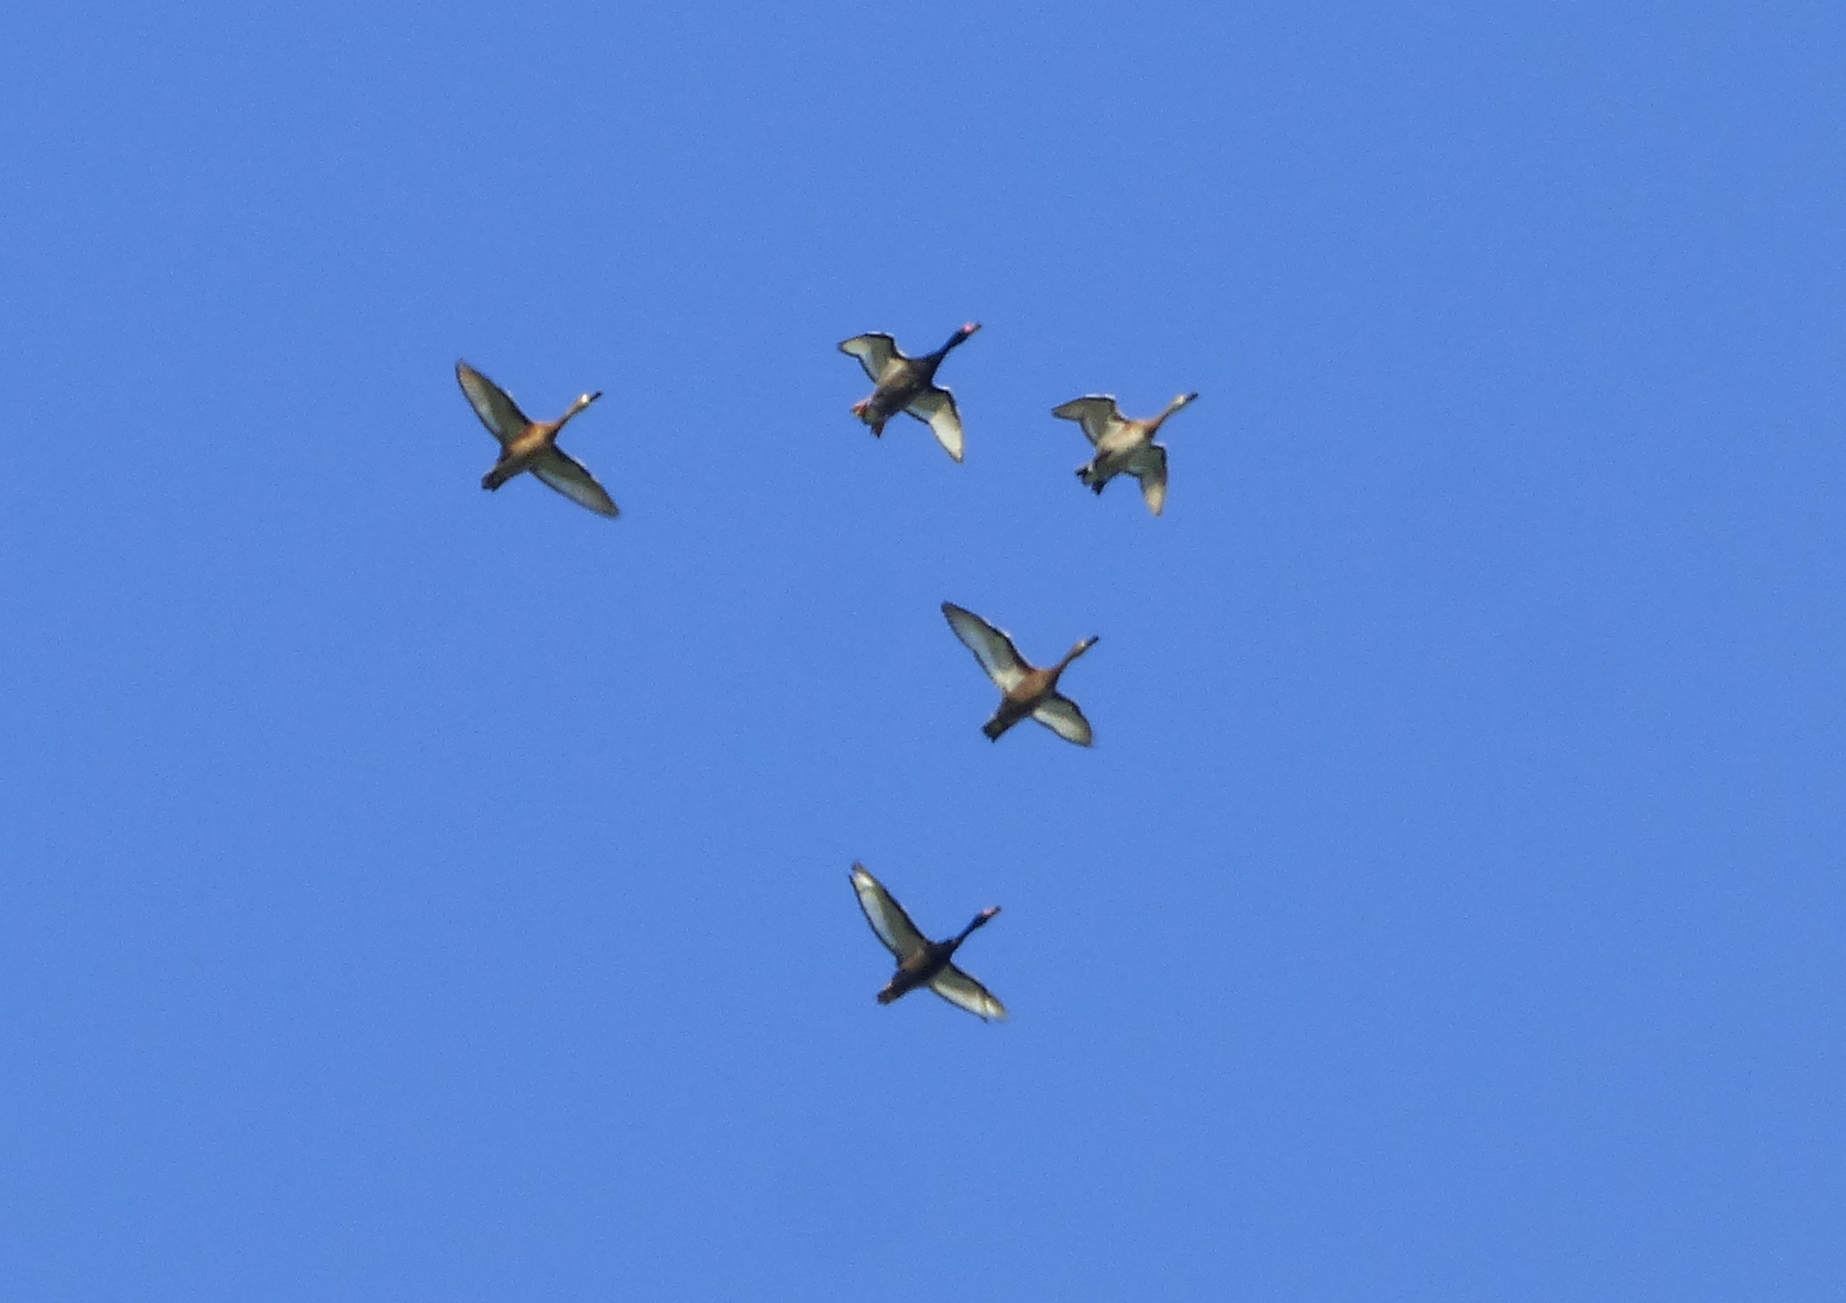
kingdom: Animalia
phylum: Chordata
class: Aves
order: Anseriformes
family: Anatidae
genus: Netta
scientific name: Netta peposaca
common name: Rosy-billed pochard
